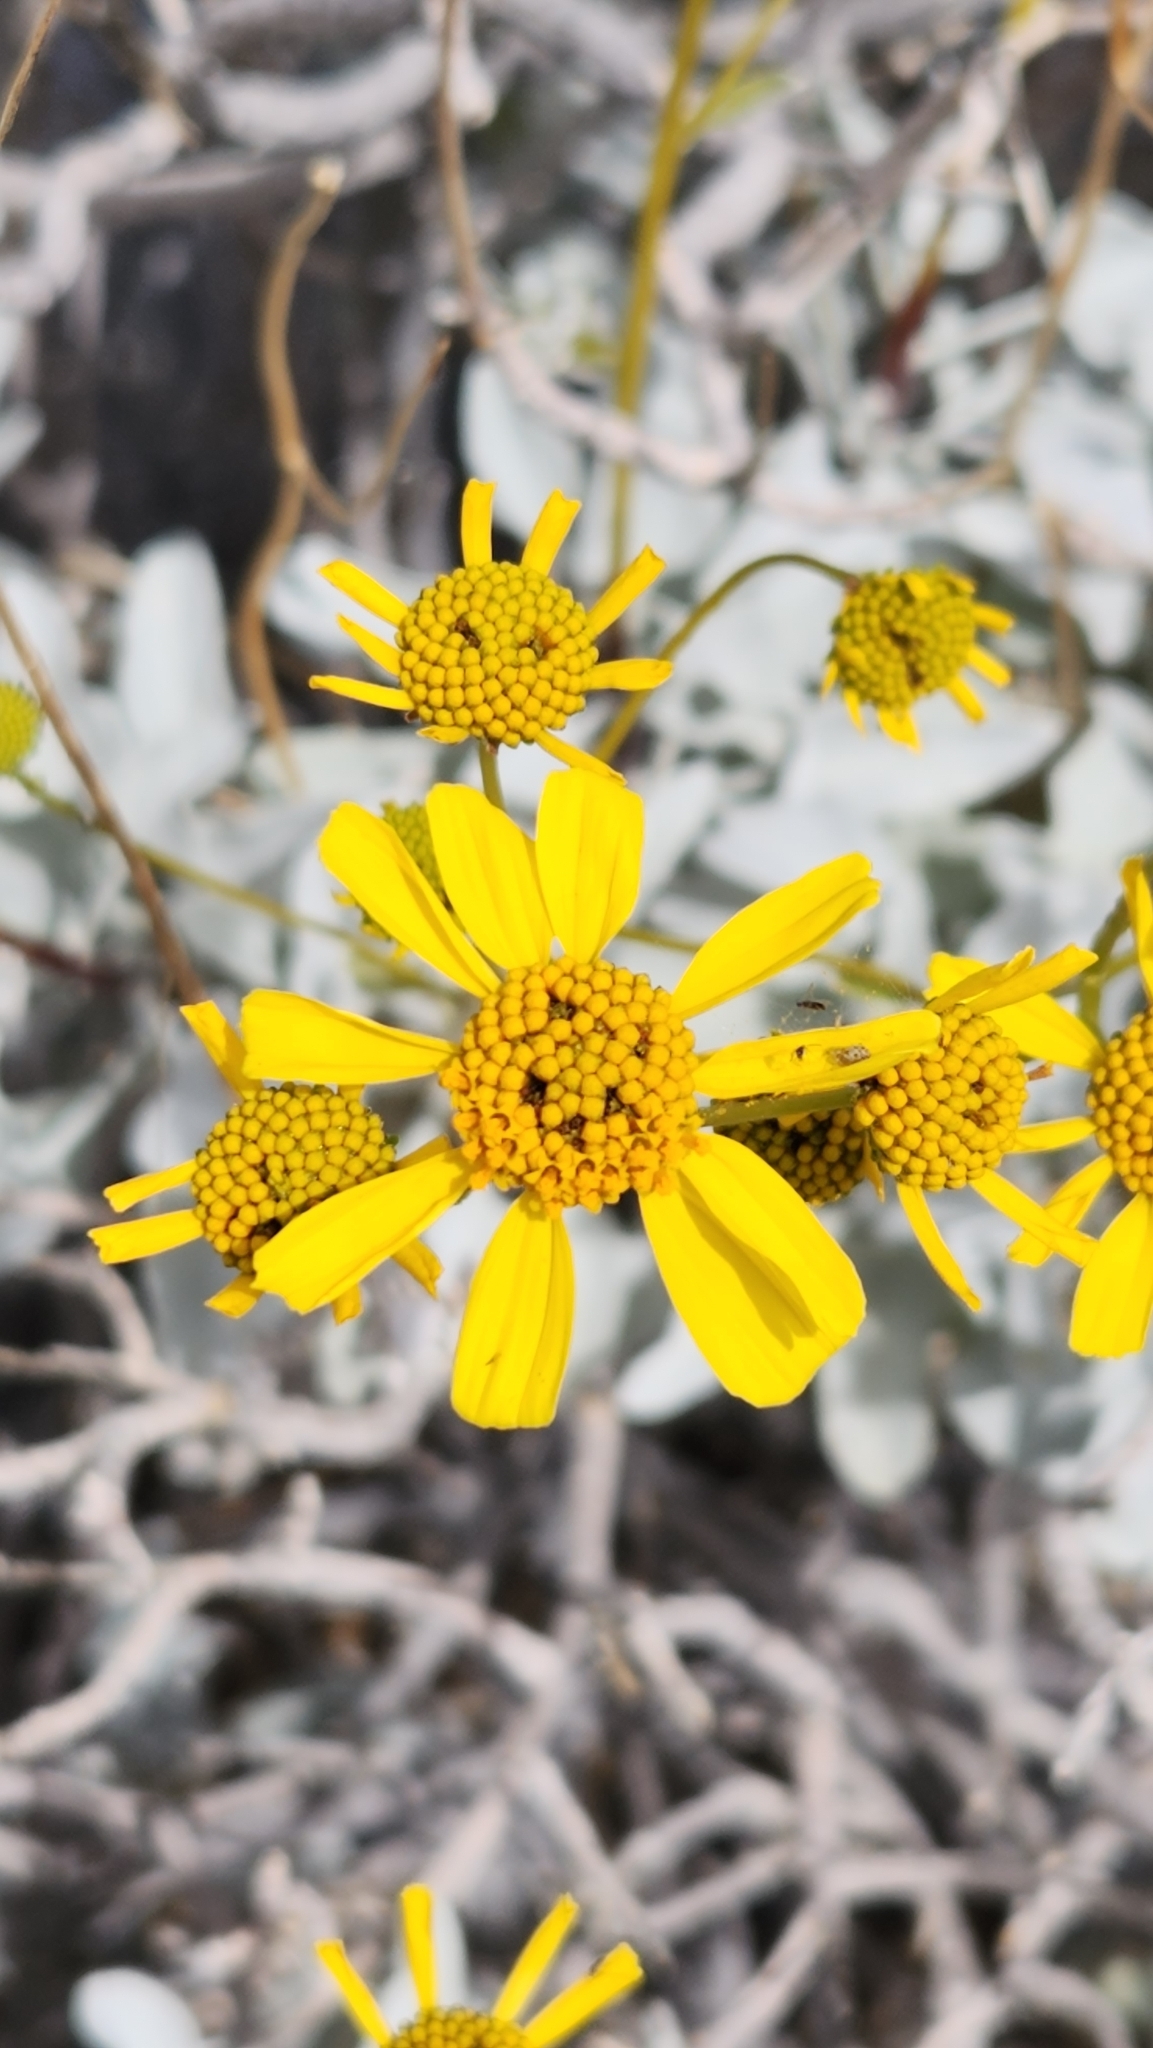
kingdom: Plantae
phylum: Tracheophyta
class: Magnoliopsida
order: Asterales
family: Asteraceae
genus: Encelia
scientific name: Encelia farinosa
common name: Brittlebush
